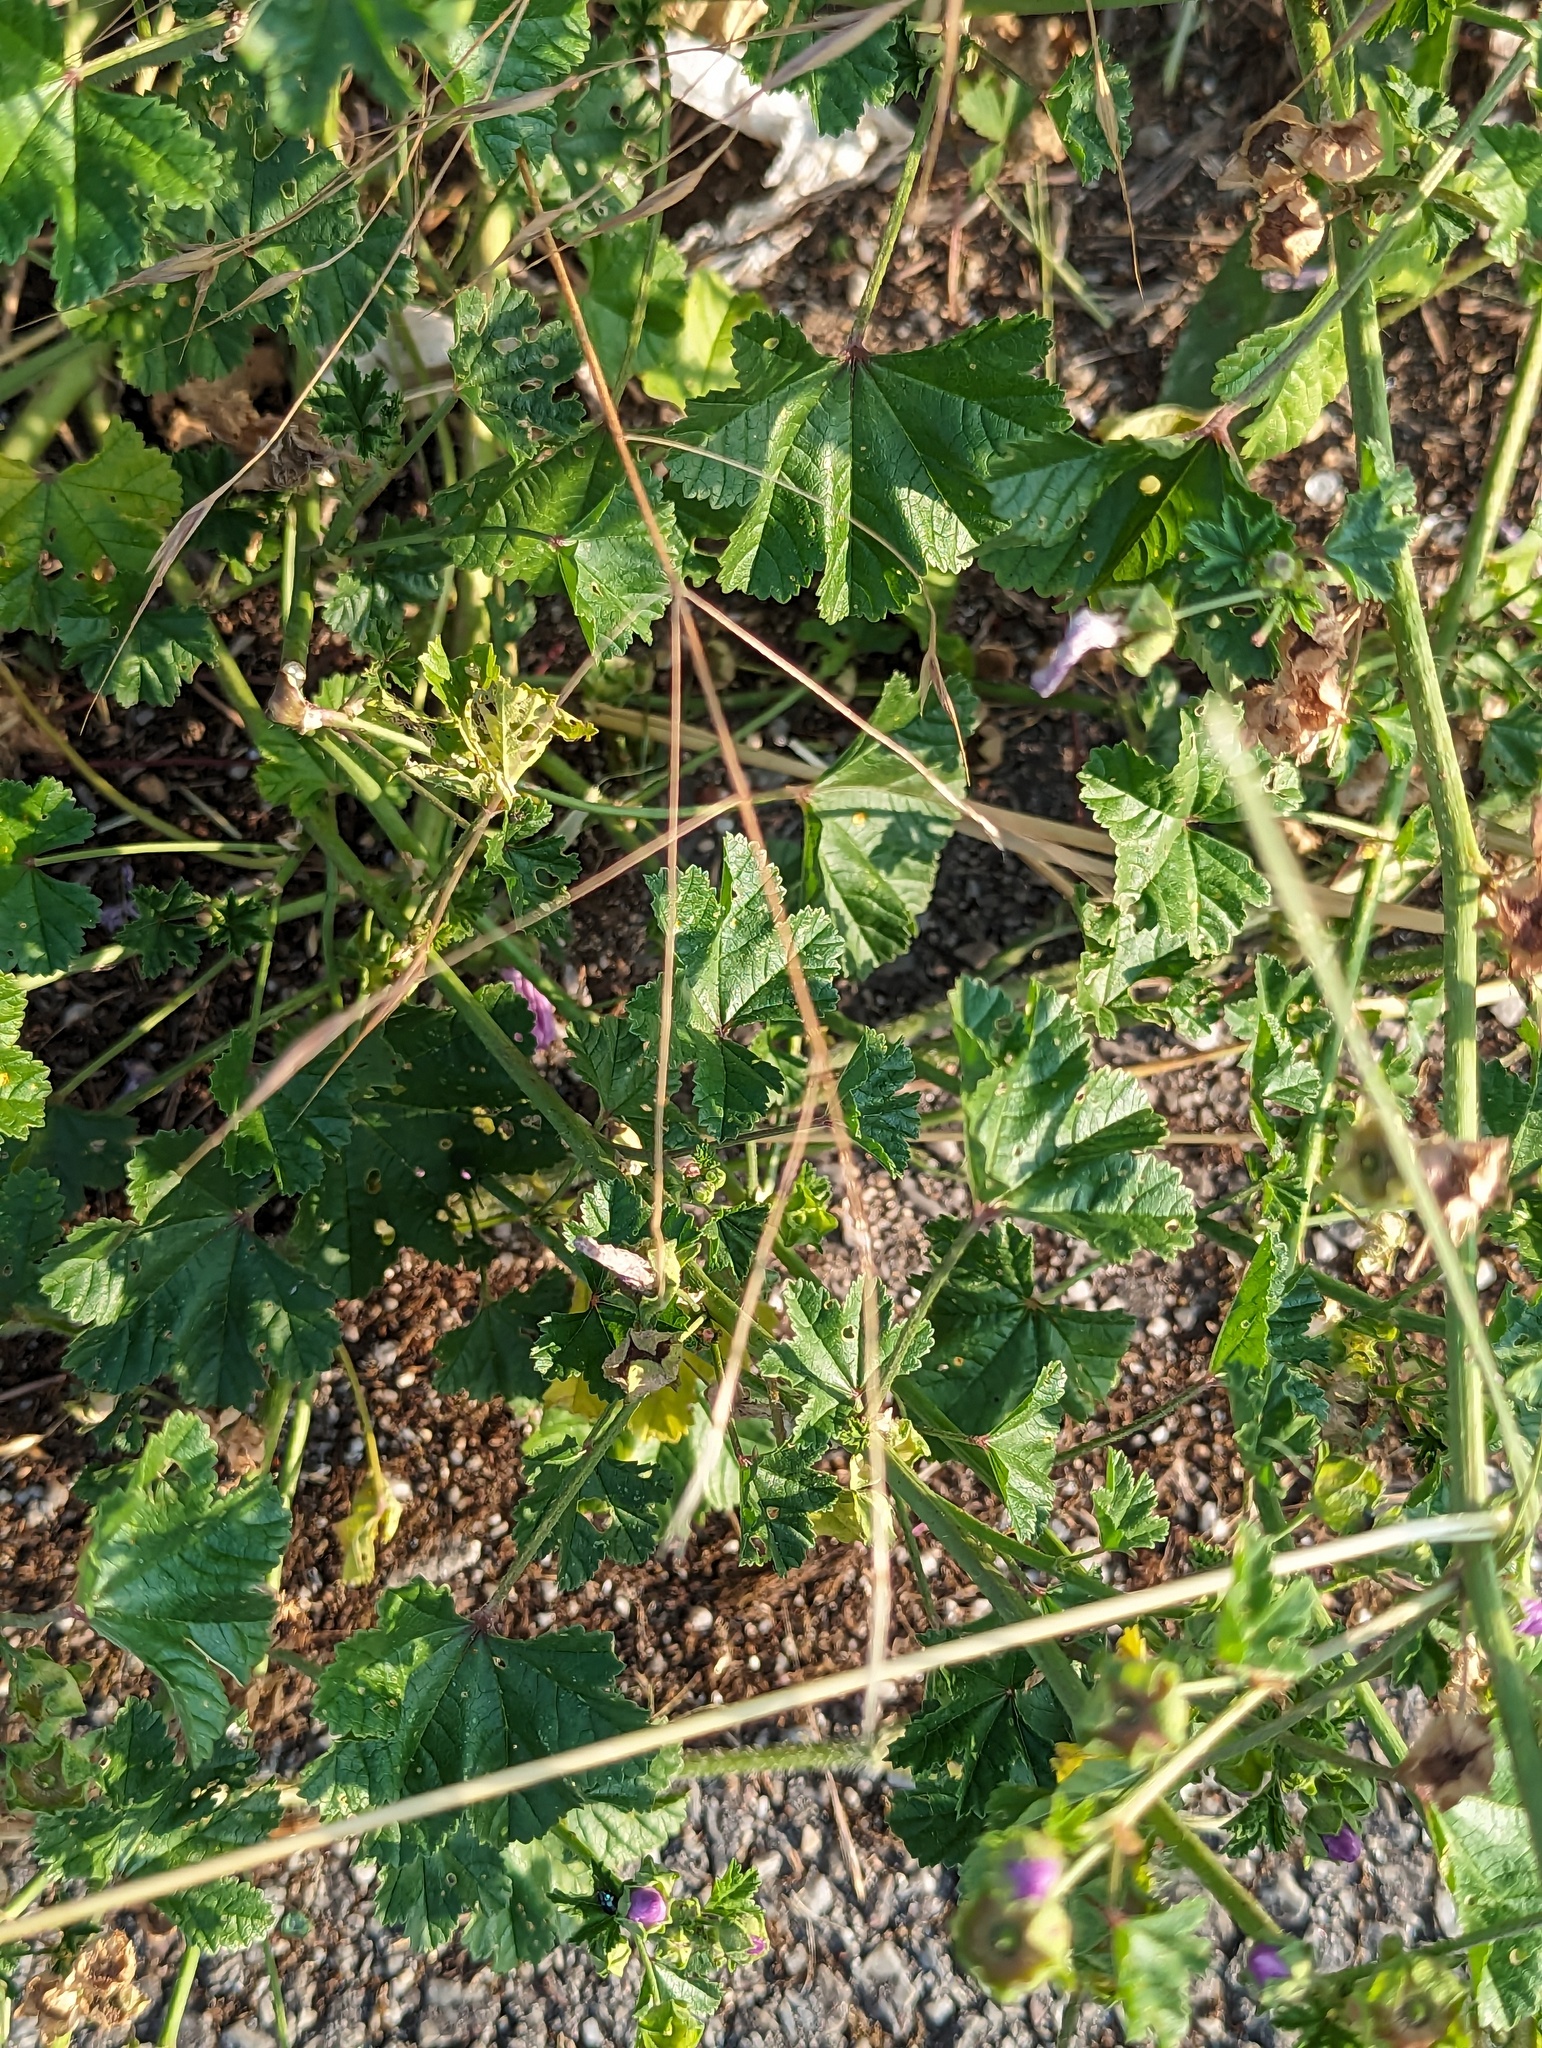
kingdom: Plantae
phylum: Tracheophyta
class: Magnoliopsida
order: Malvales
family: Malvaceae
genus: Malva
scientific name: Malva sylvestris
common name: Common mallow
